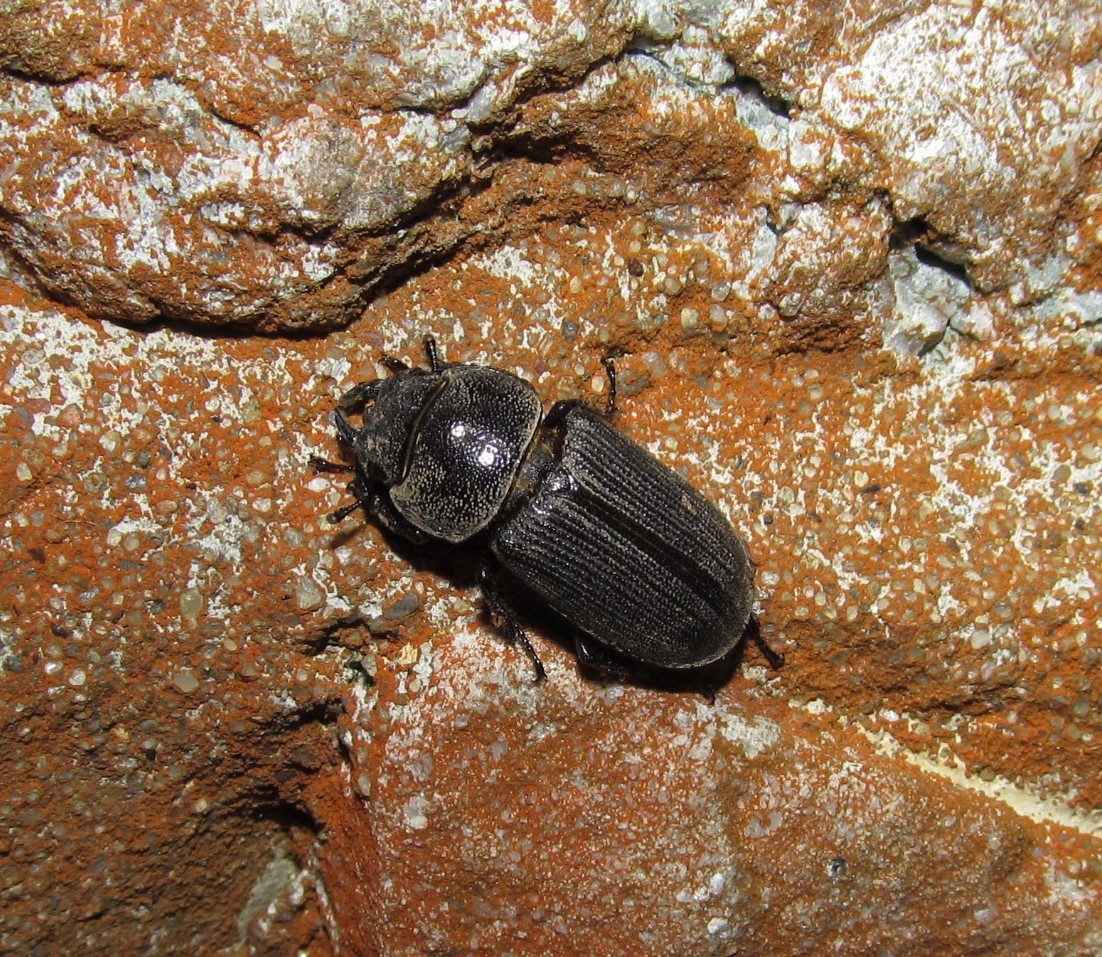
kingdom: Animalia
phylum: Arthropoda
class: Insecta
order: Coleoptera
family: Lucanidae
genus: Dorcus
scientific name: Dorcus parallelus
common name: Antelope beetle
